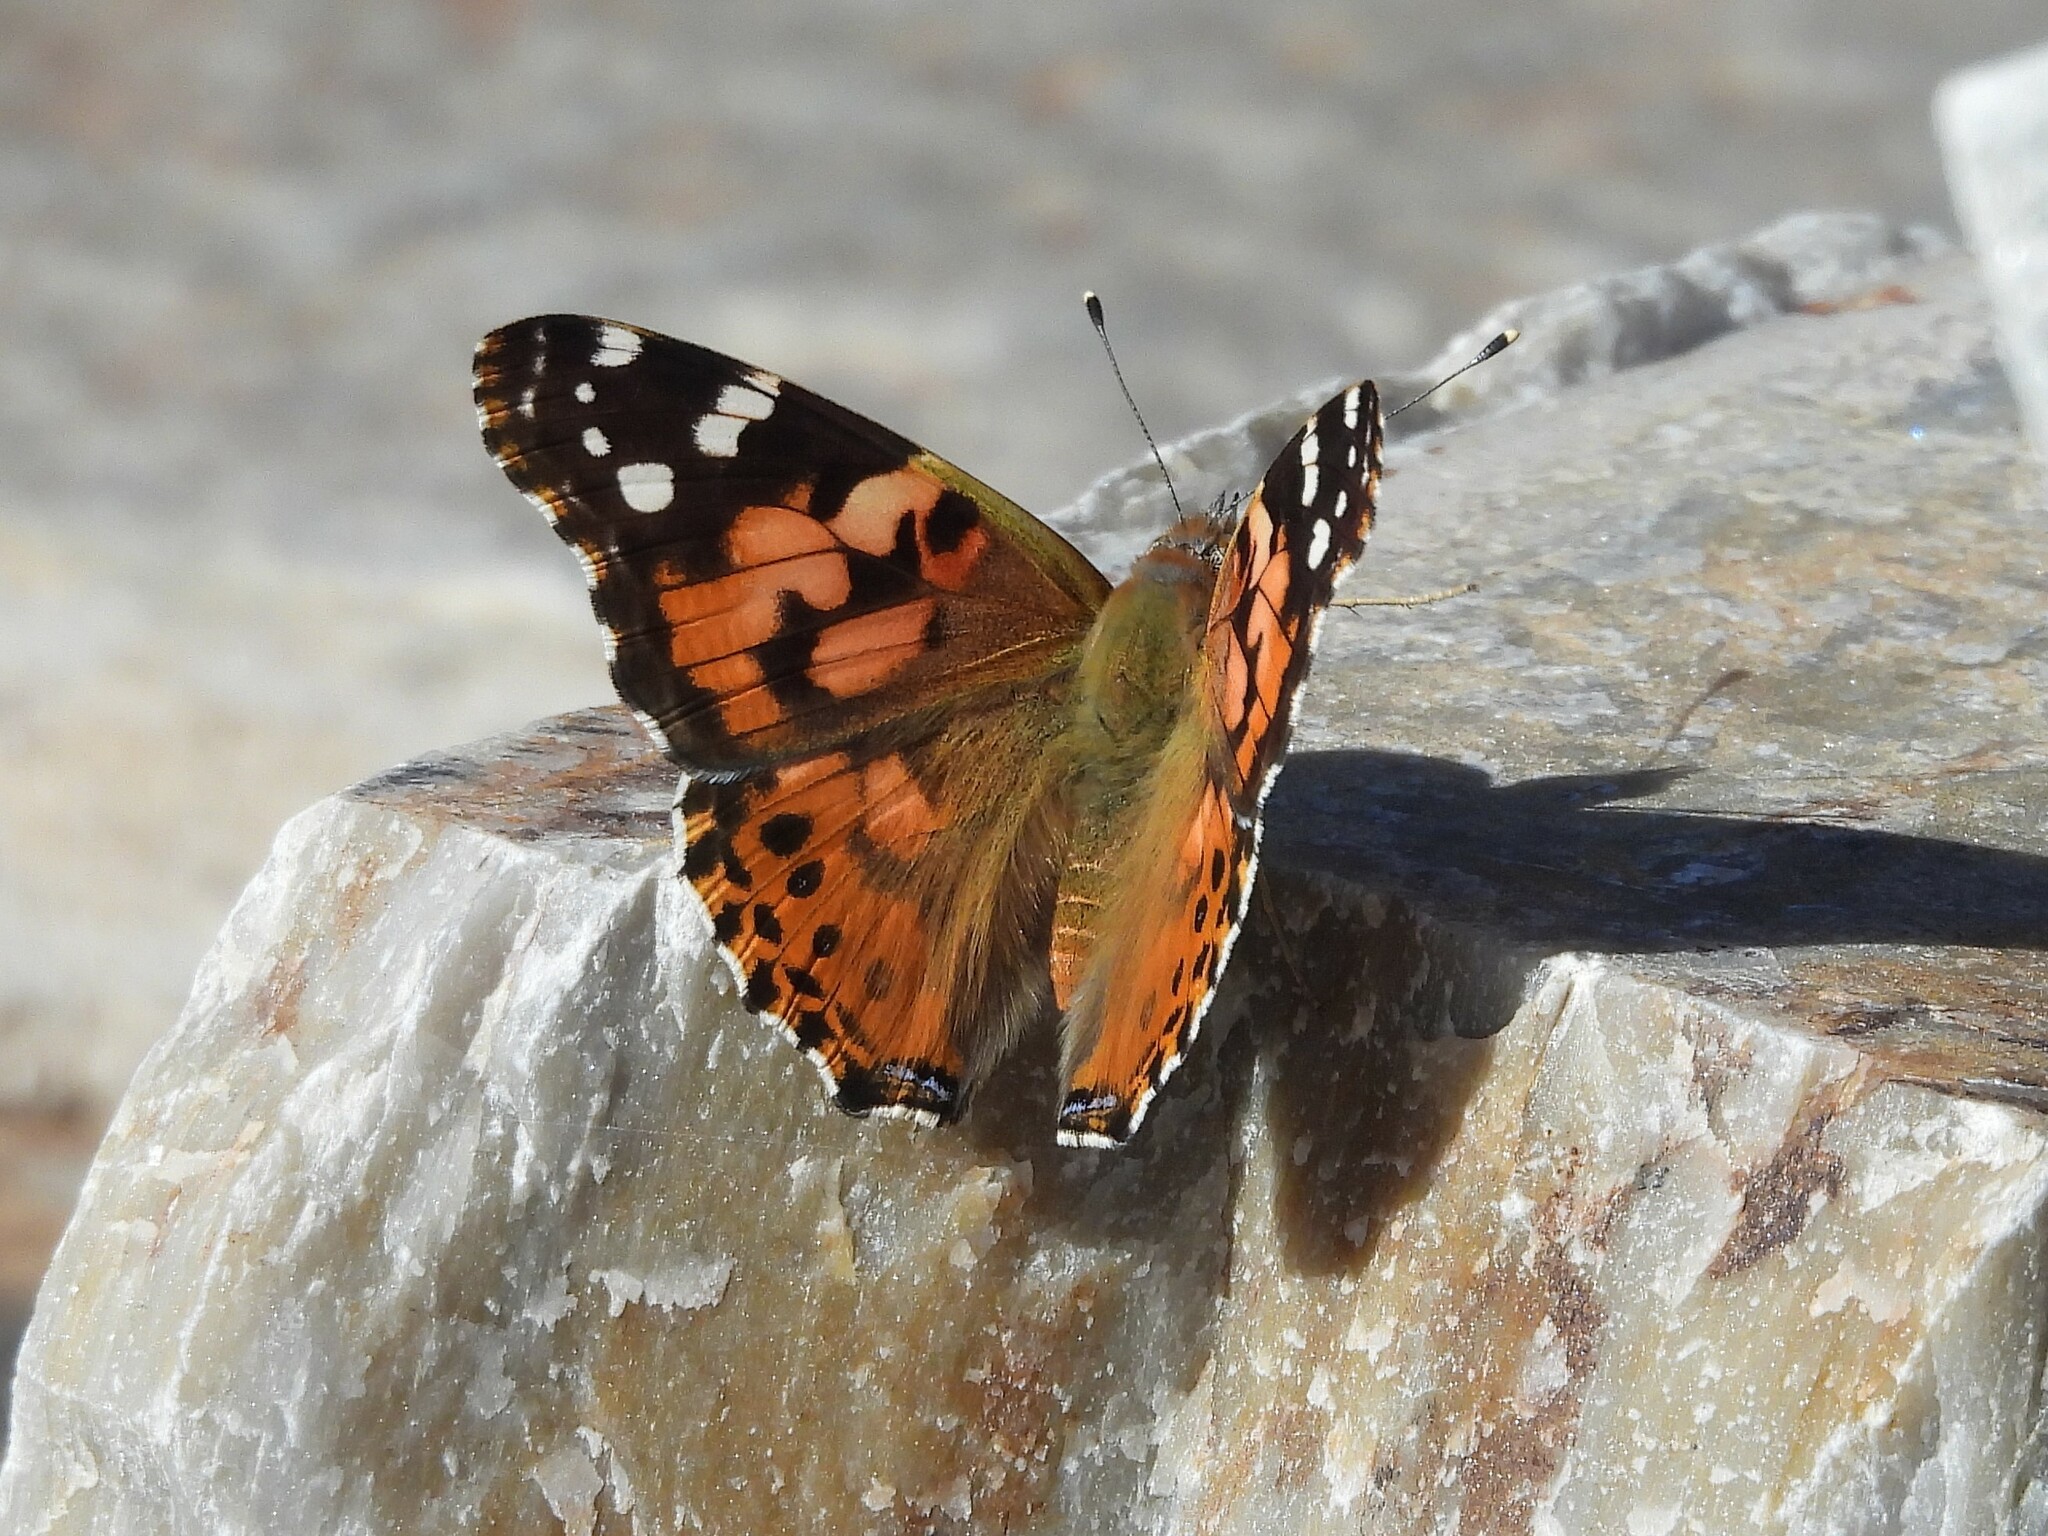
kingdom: Animalia
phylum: Arthropoda
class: Insecta
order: Lepidoptera
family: Nymphalidae
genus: Vanessa
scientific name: Vanessa cardui
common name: Painted lady
